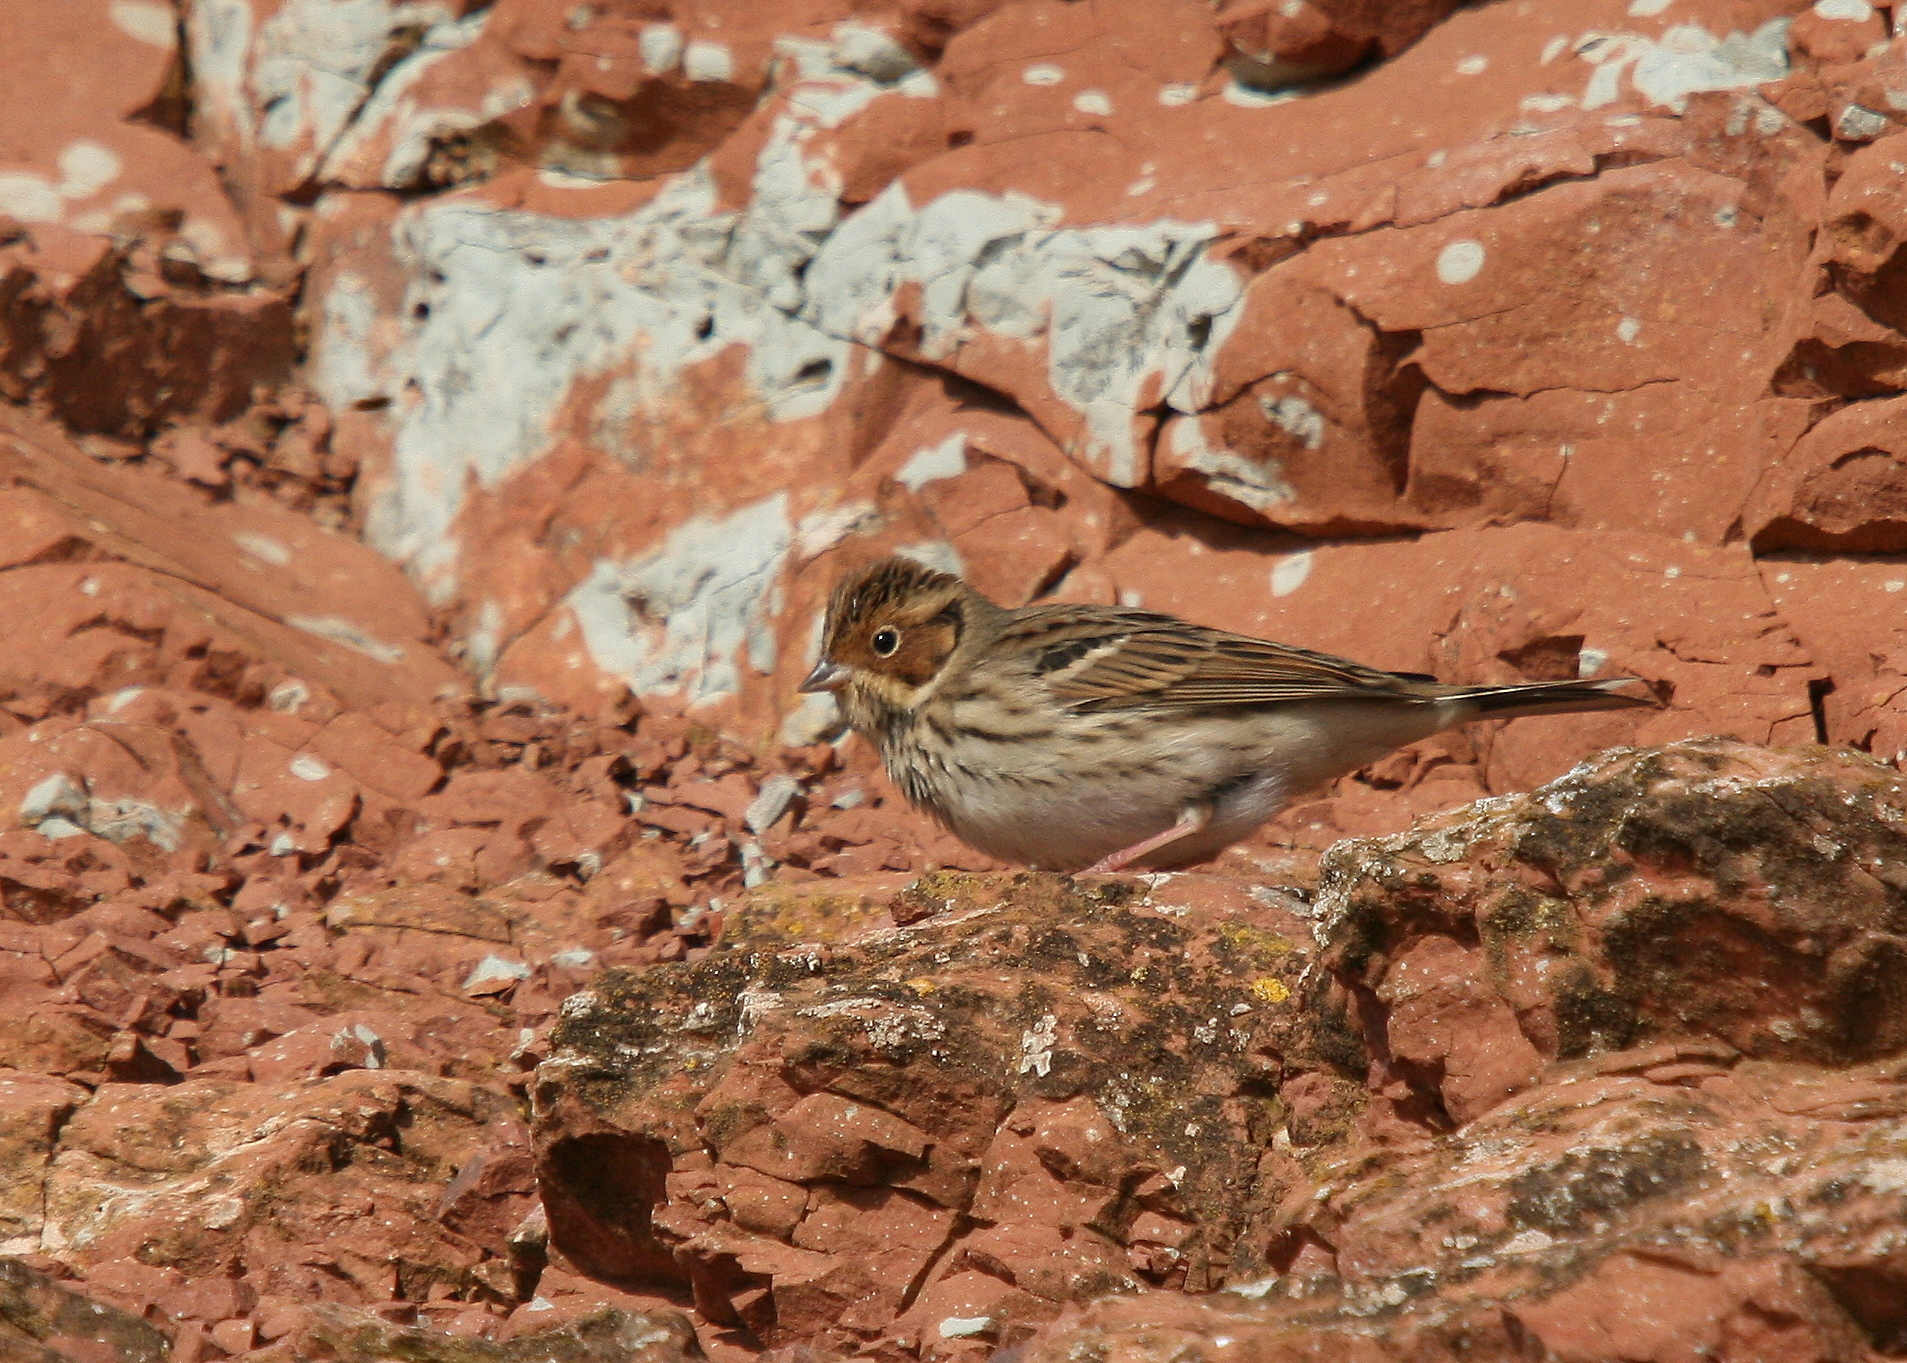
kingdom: Animalia
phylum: Chordata
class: Aves
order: Passeriformes
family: Emberizidae
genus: Emberiza
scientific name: Emberiza pusilla
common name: Little bunting
